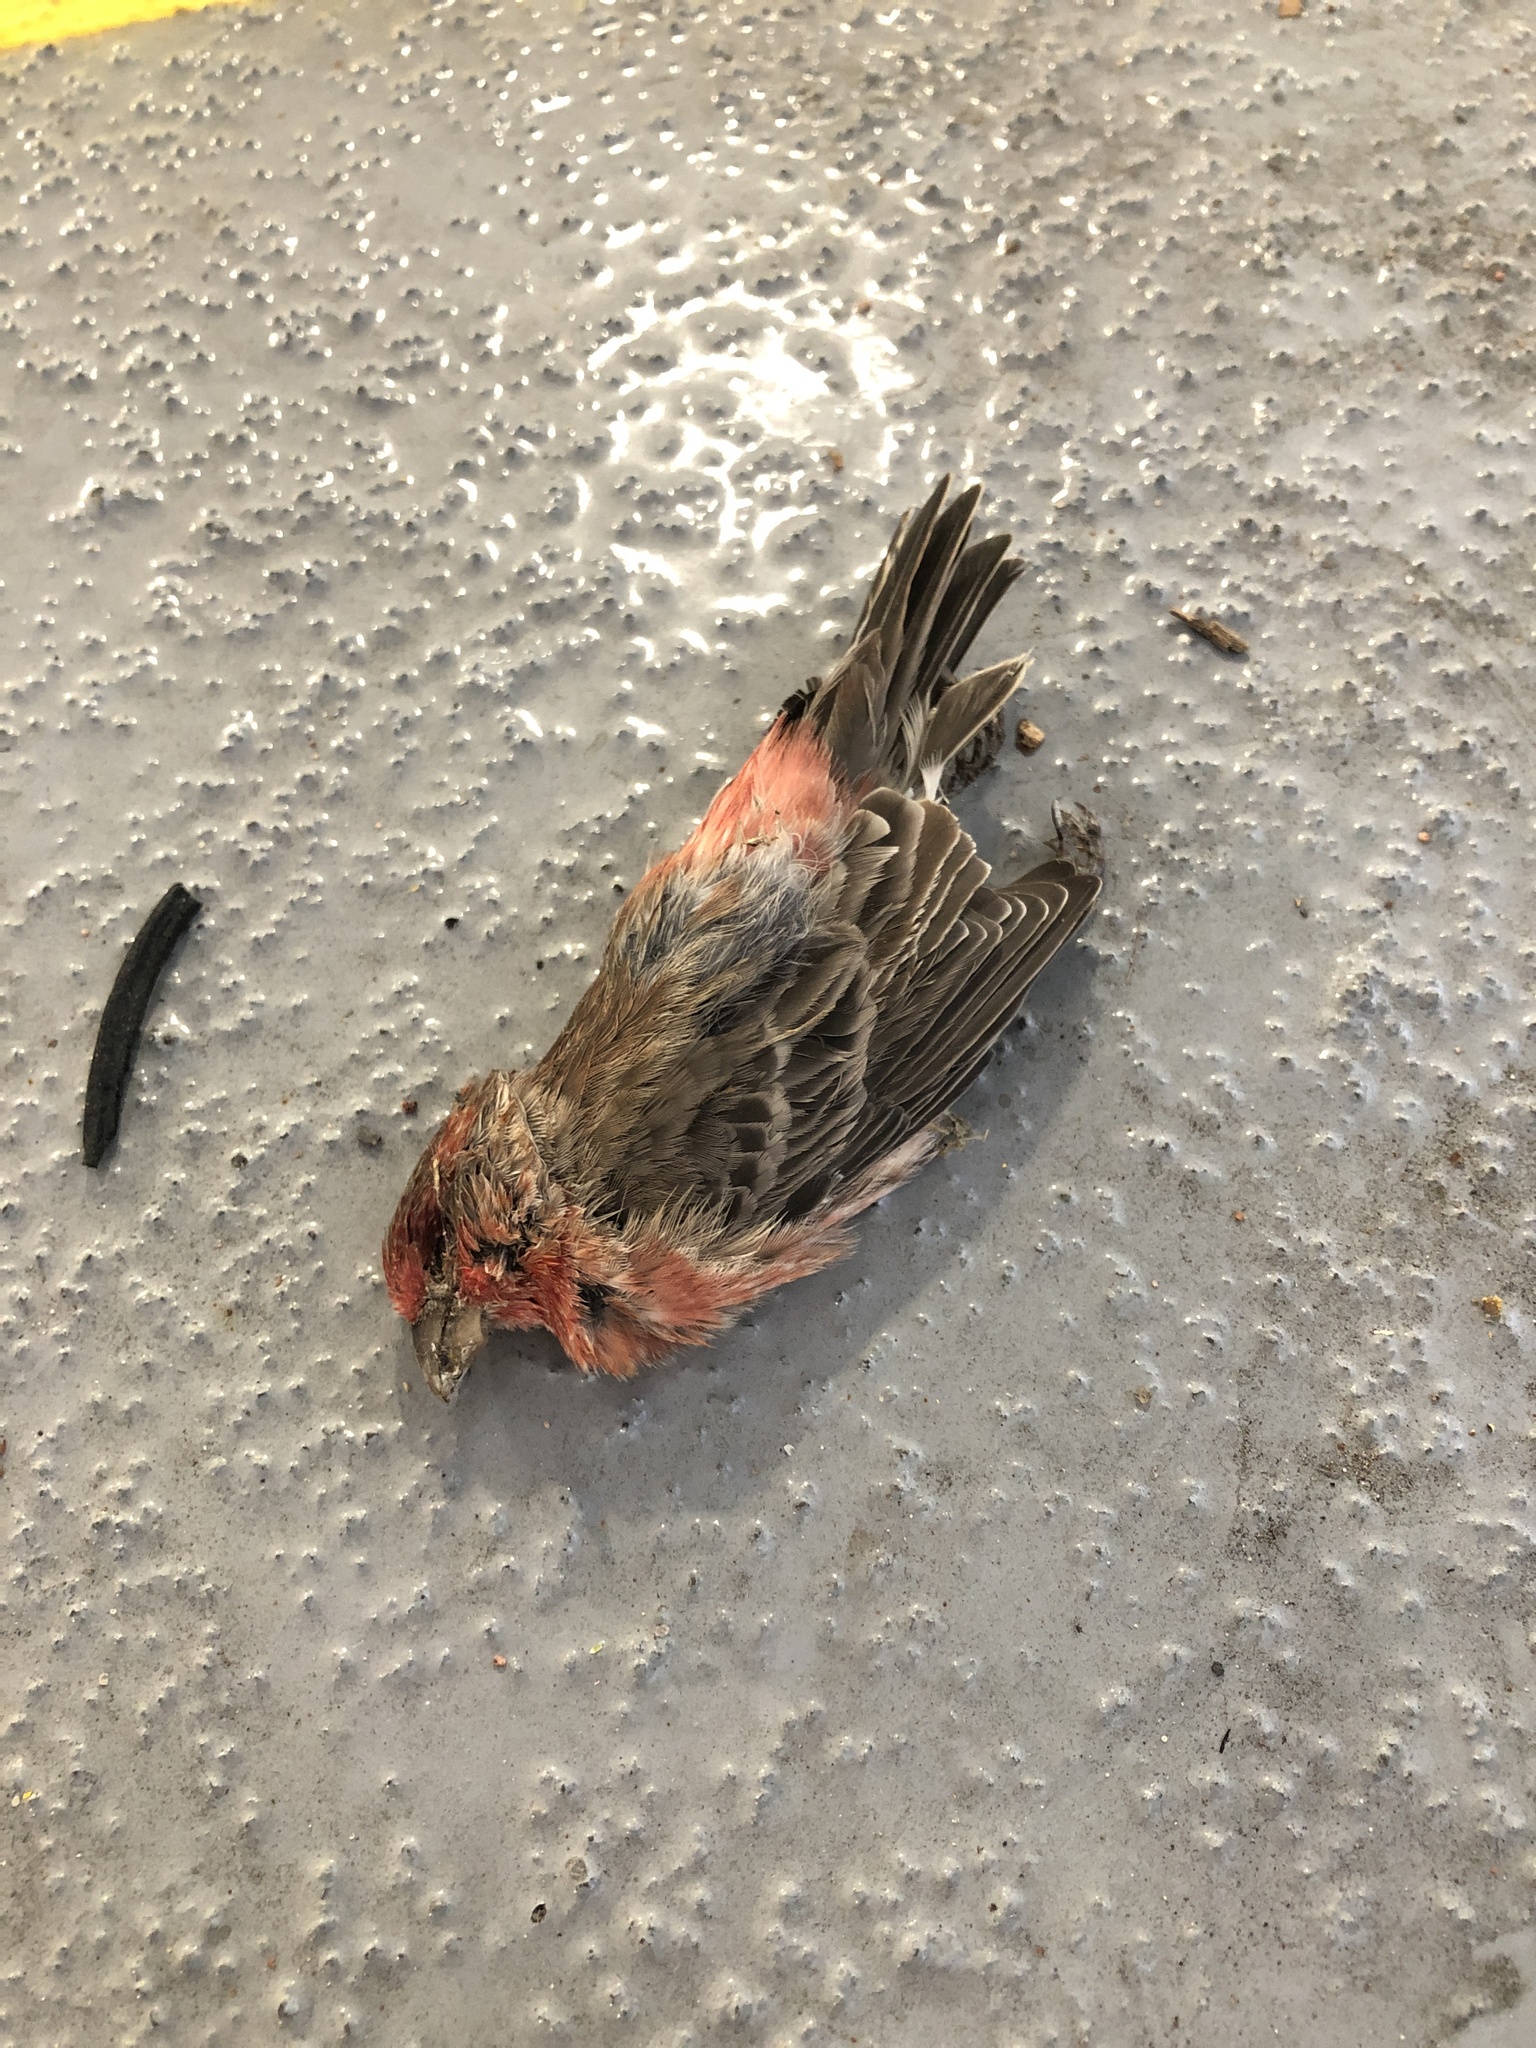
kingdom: Animalia
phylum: Chordata
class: Aves
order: Passeriformes
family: Fringillidae
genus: Haemorhous
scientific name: Haemorhous mexicanus
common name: House finch
